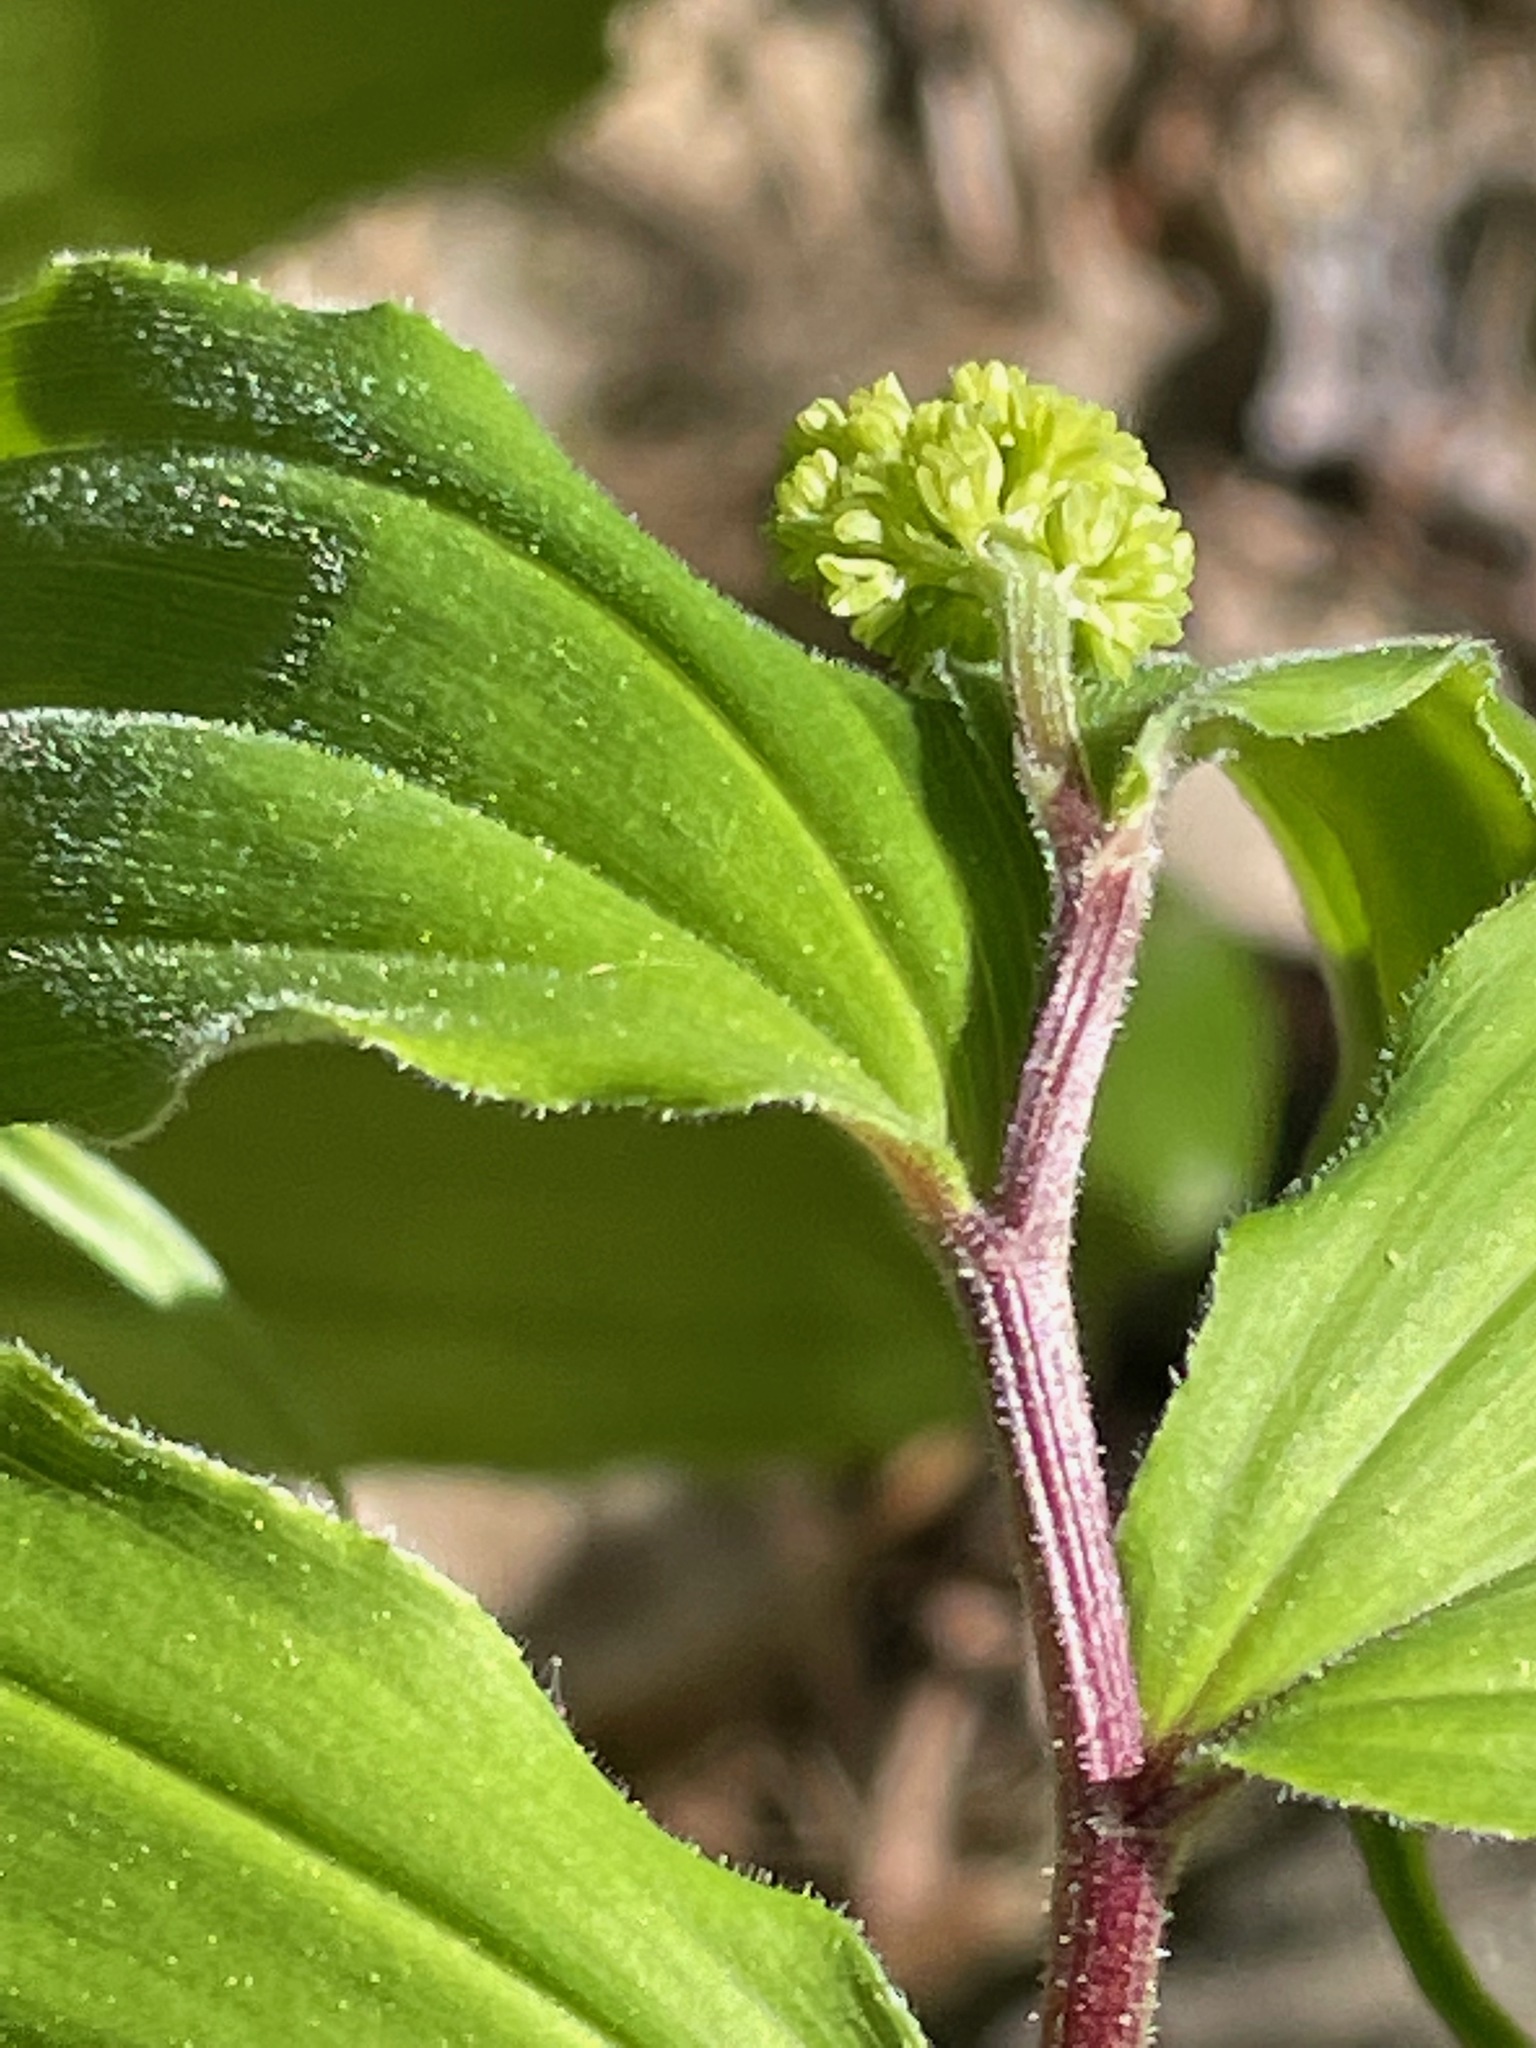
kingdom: Plantae
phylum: Tracheophyta
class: Liliopsida
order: Asparagales
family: Asparagaceae
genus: Maianthemum
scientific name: Maianthemum racemosum
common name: False spikenard
